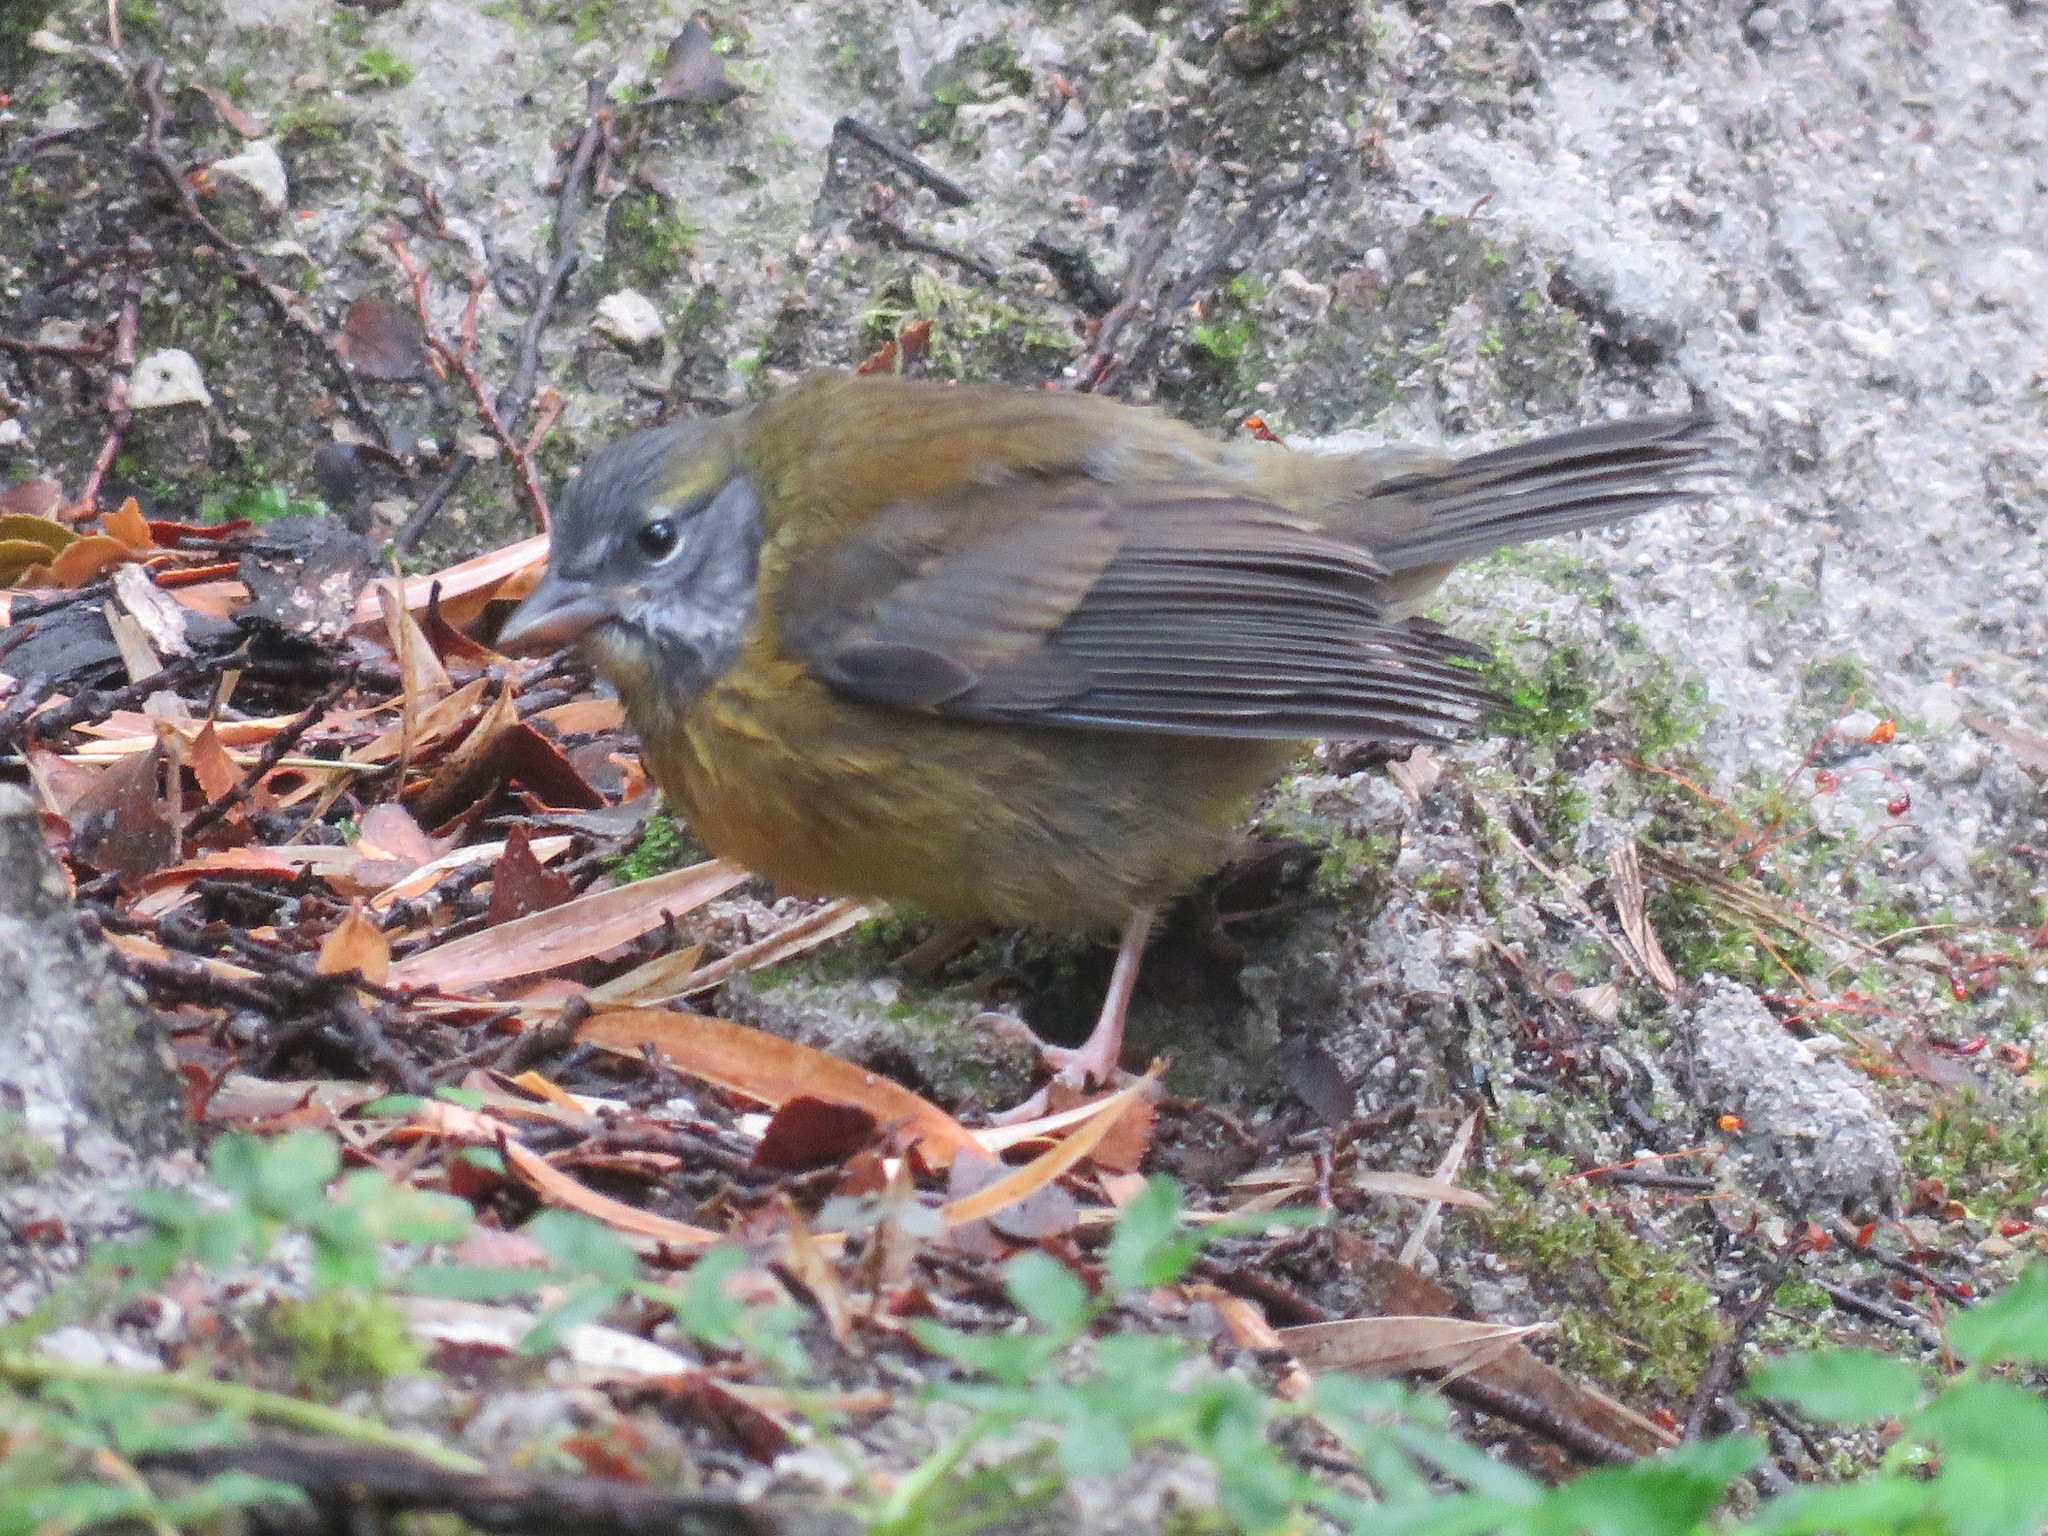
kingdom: Animalia
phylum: Chordata
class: Aves
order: Passeriformes
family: Thraupidae
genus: Phrygilus
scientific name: Phrygilus gayi
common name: Grey-hooded sierra finch
